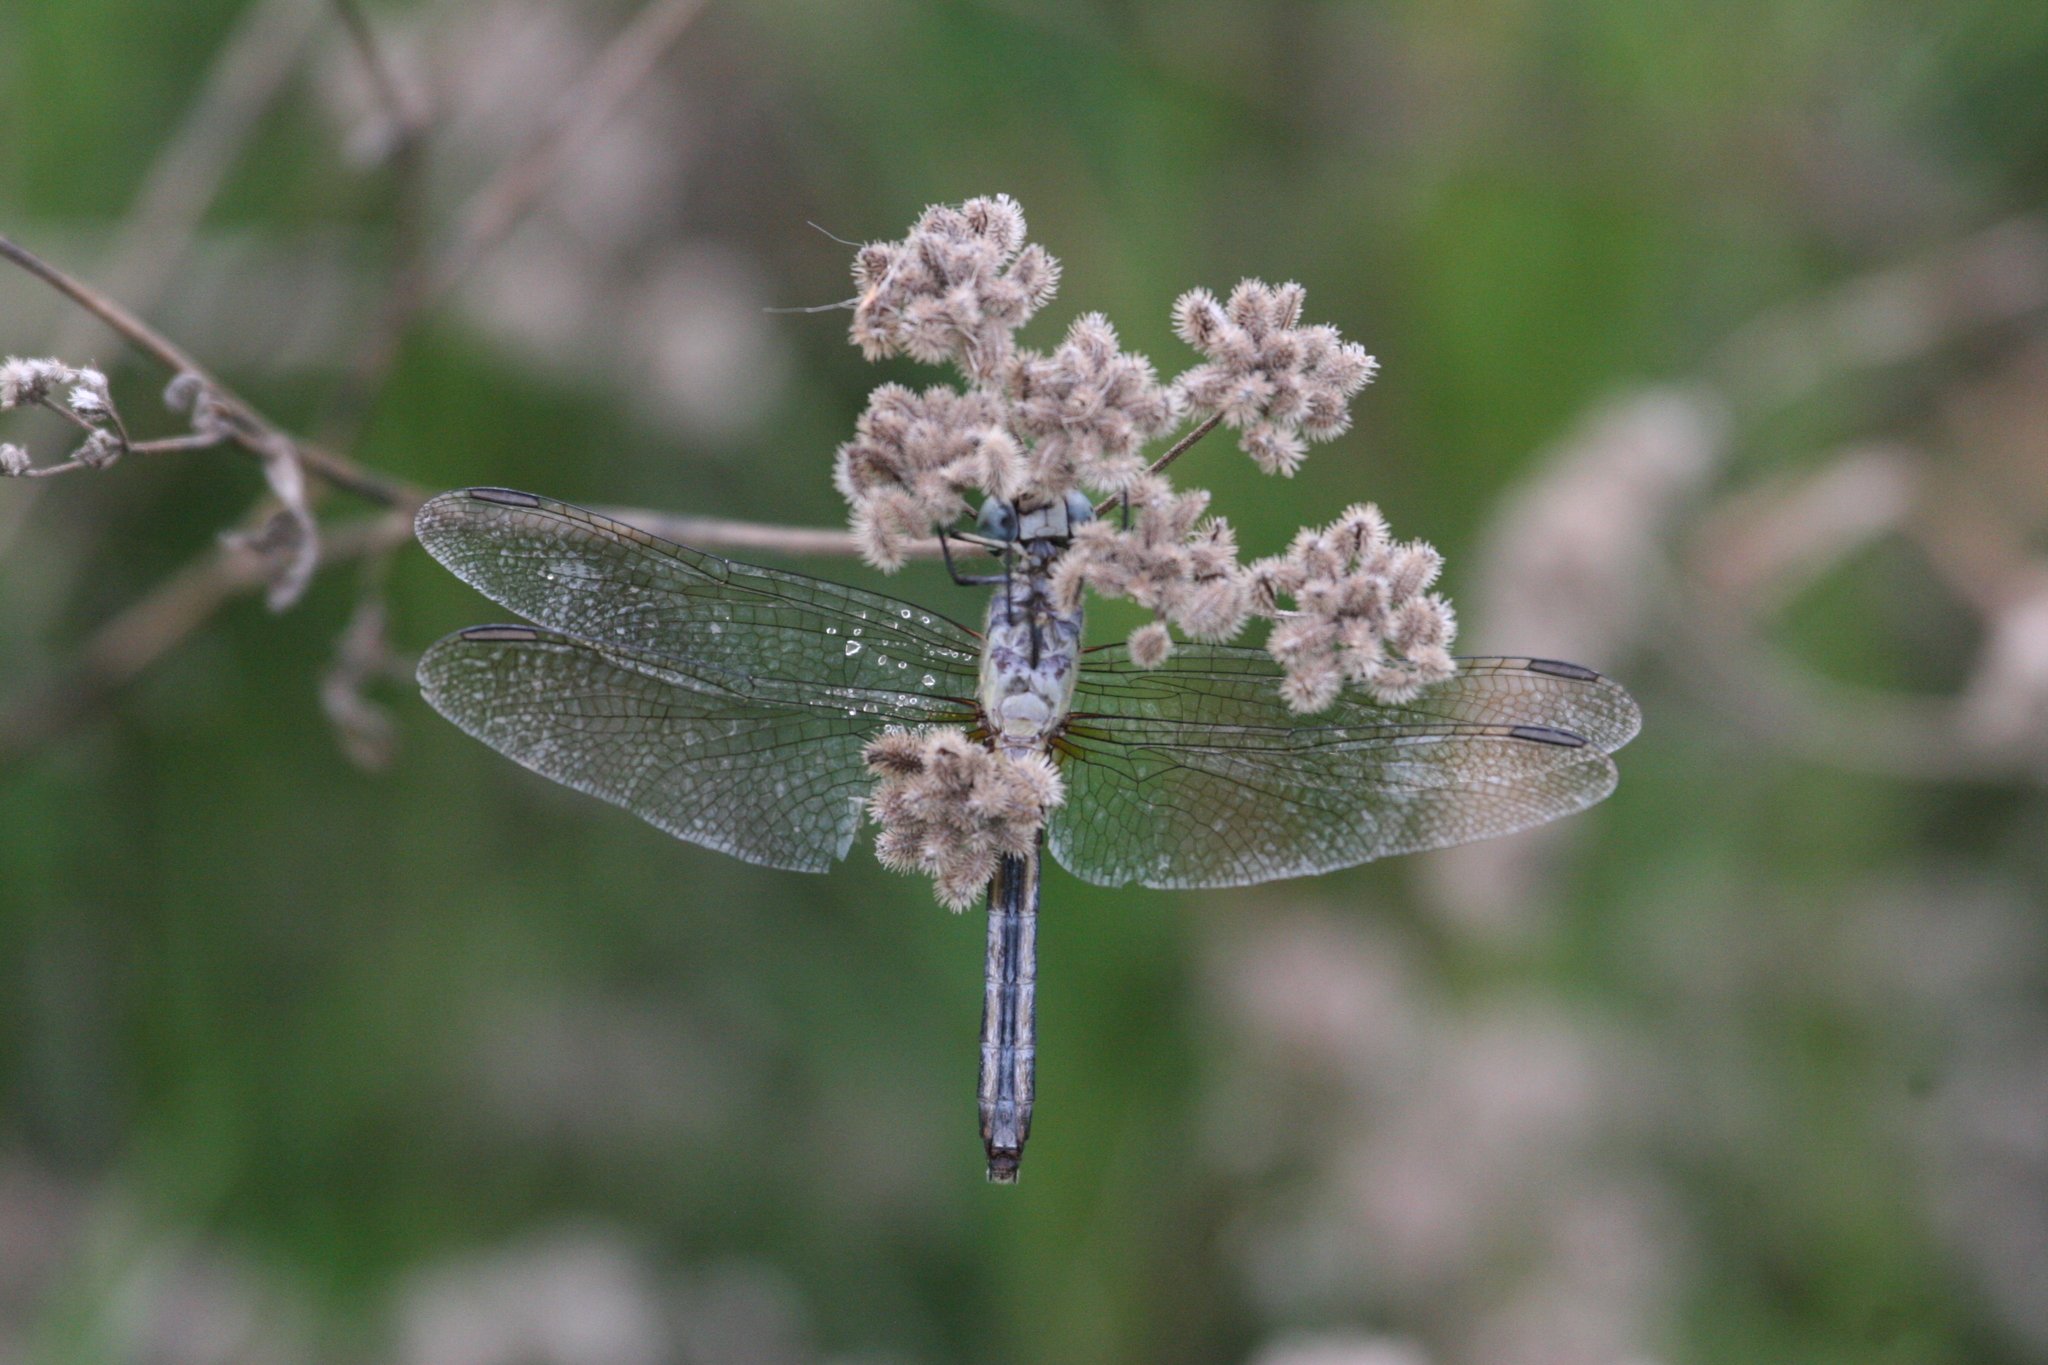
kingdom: Animalia
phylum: Arthropoda
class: Insecta
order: Odonata
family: Libellulidae
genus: Pachydiplax
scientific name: Pachydiplax longipennis
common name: Blue dasher
